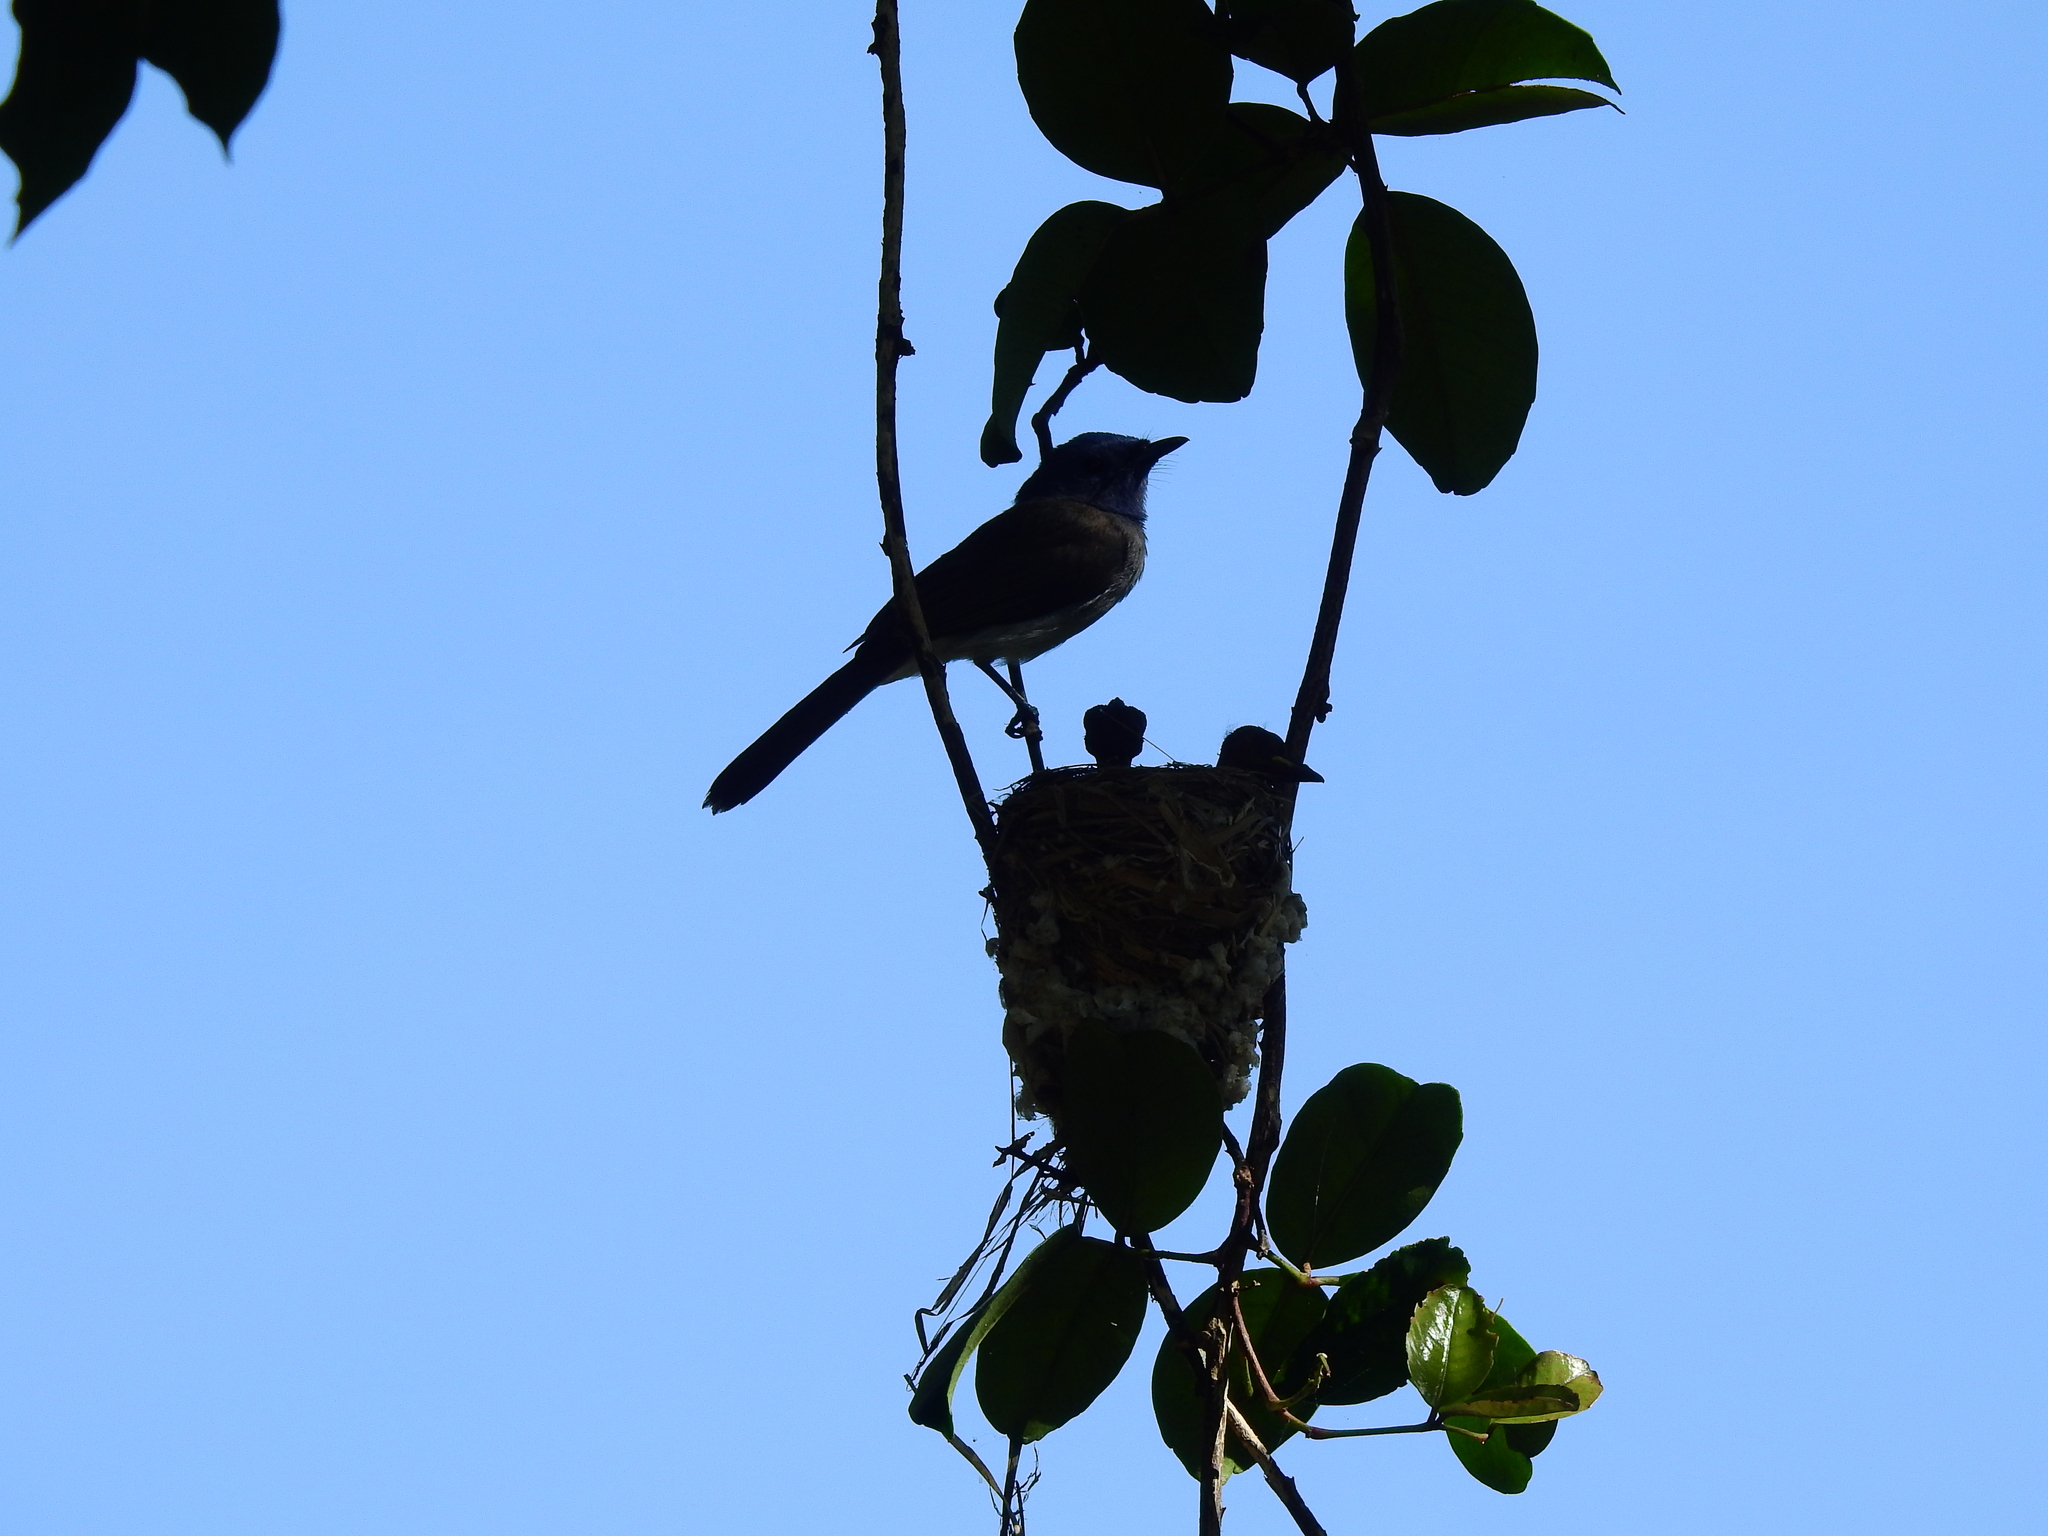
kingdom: Animalia
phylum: Chordata
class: Aves
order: Passeriformes
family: Monarchidae
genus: Hypothymis
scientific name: Hypothymis azurea
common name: Black-naped monarch
